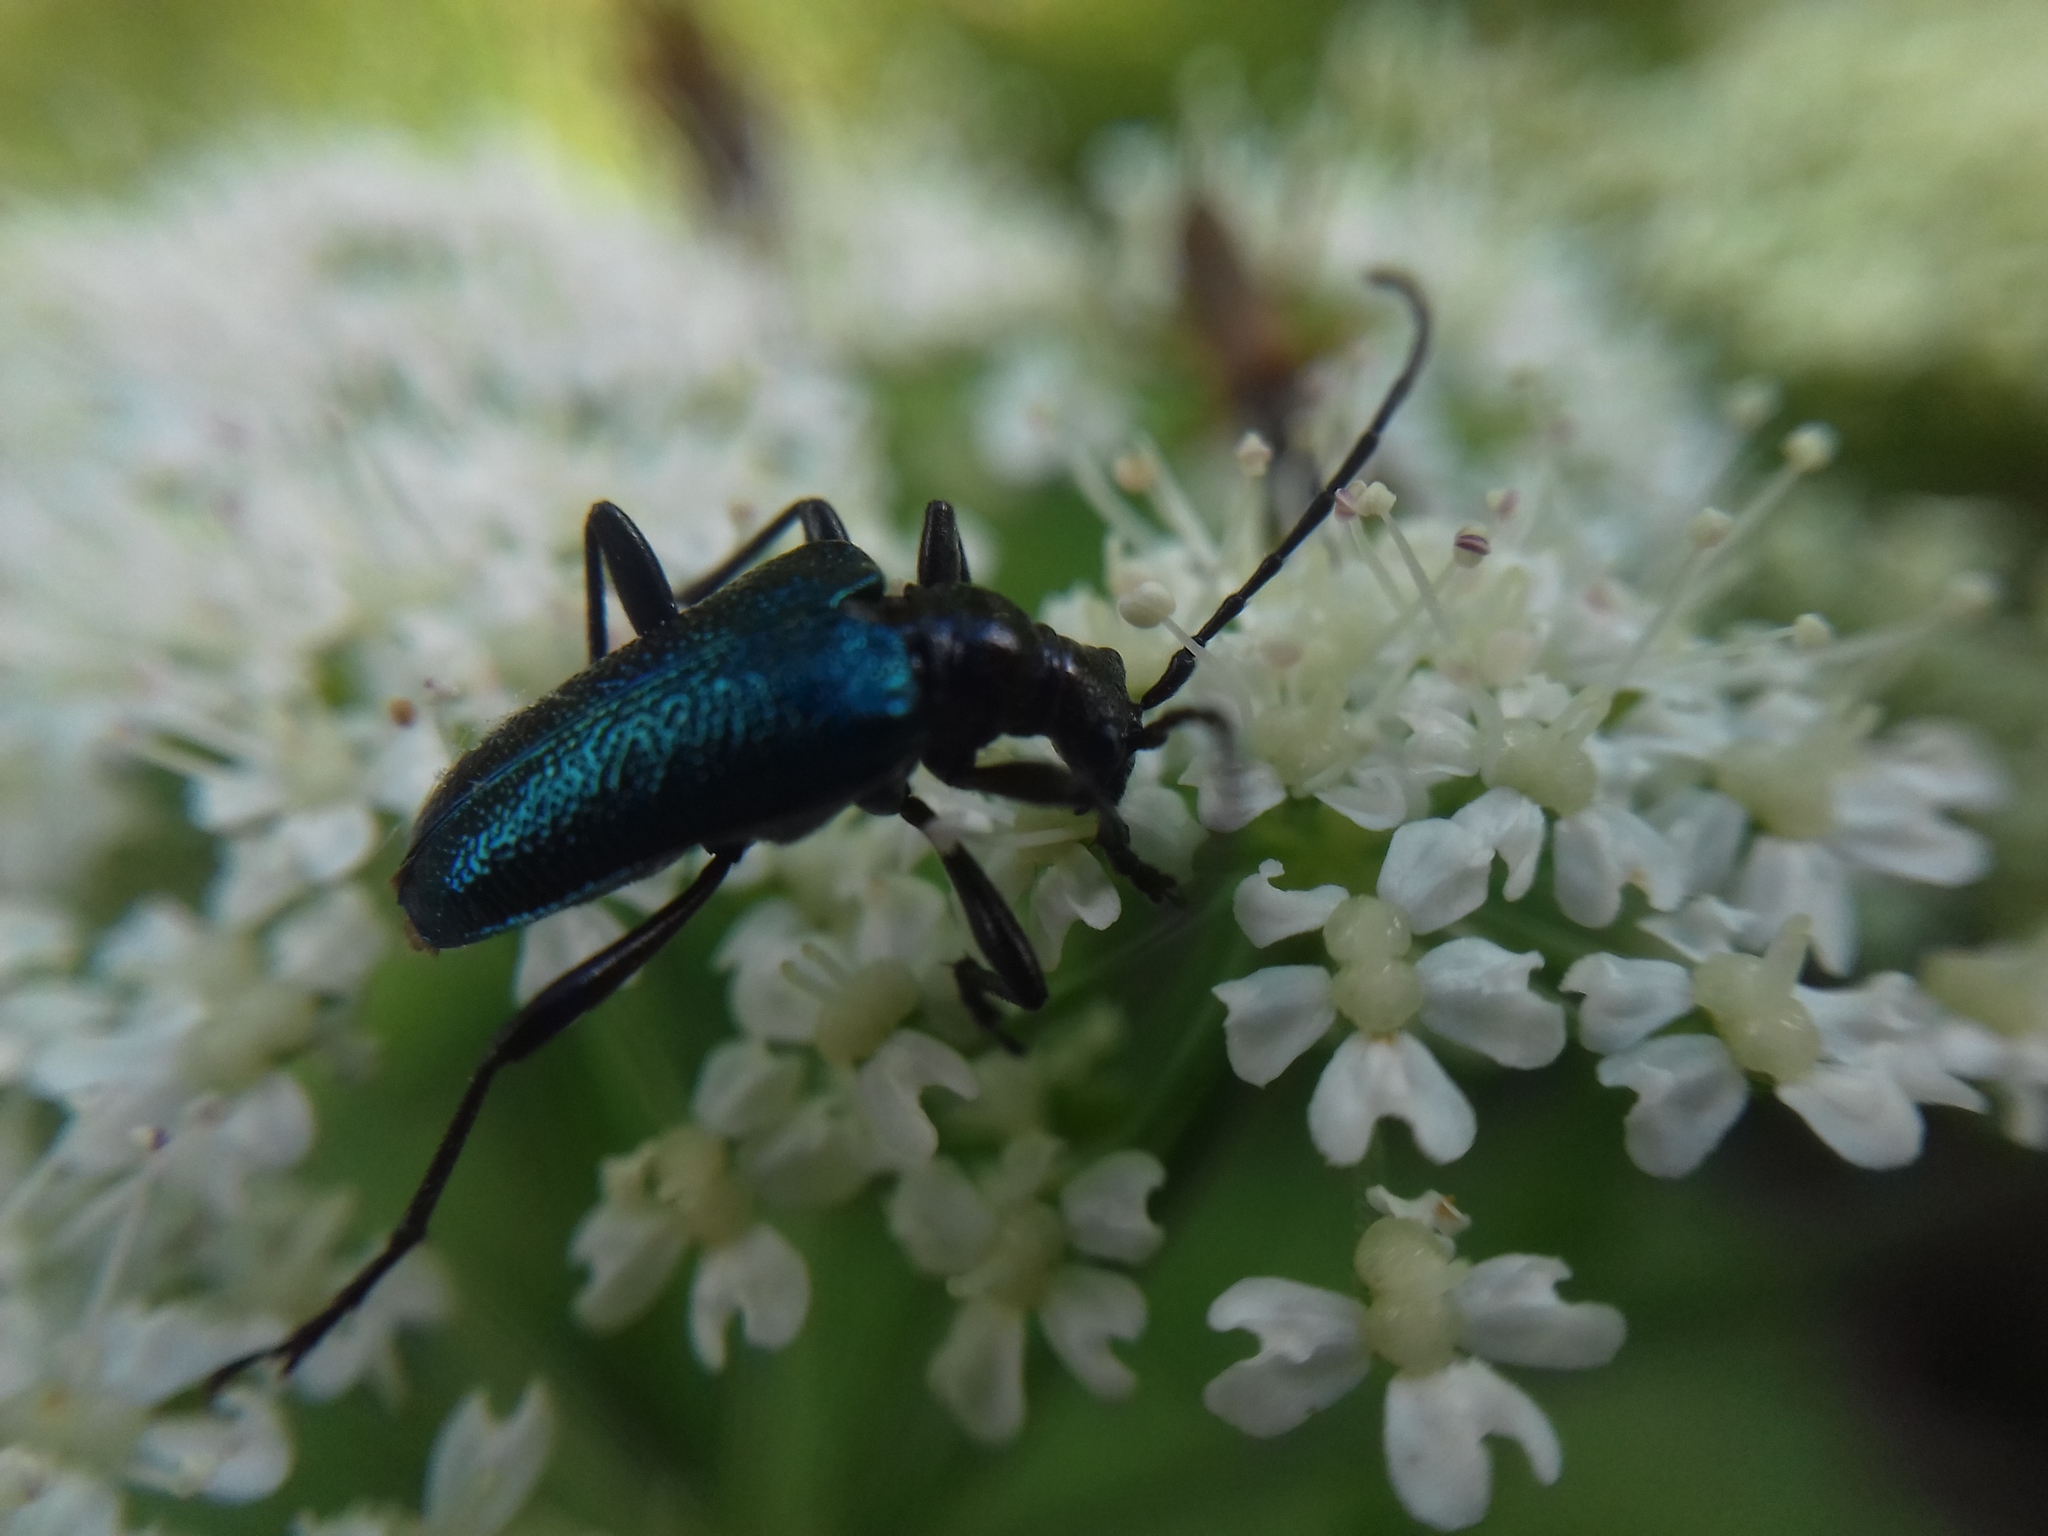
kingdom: Animalia
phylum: Arthropoda
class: Insecta
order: Coleoptera
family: Cerambycidae
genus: Gaurotes
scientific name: Gaurotes virginea
